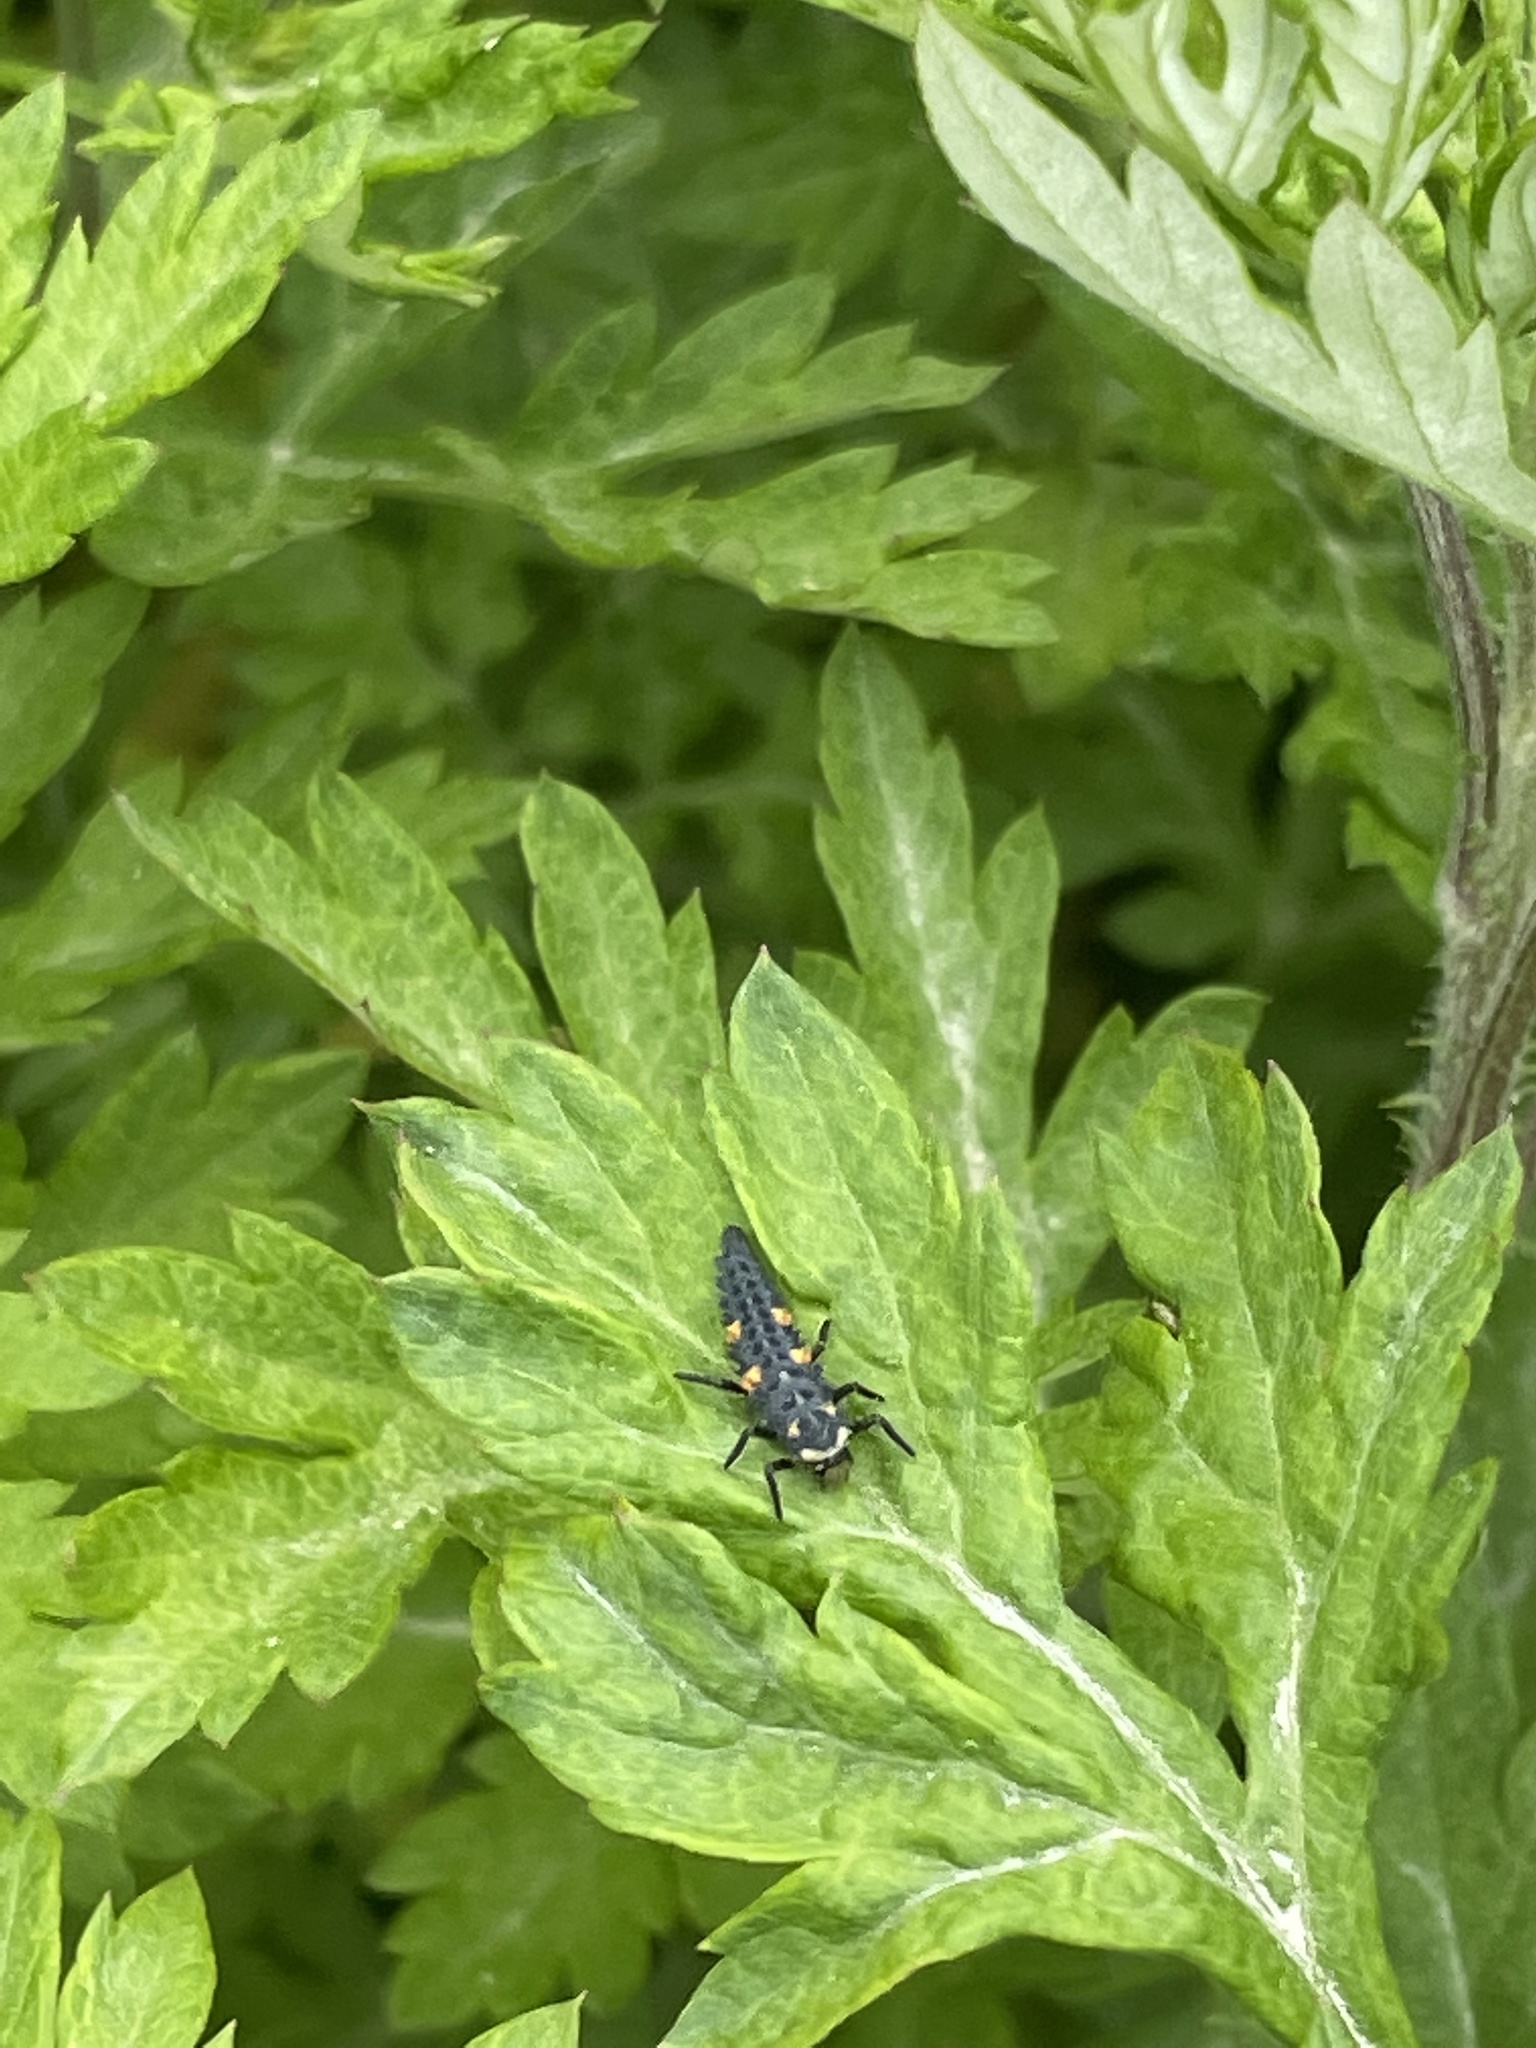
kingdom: Animalia
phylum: Arthropoda
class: Insecta
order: Coleoptera
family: Coccinellidae
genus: Coccinella
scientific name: Coccinella septempunctata
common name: Sevenspotted lady beetle
